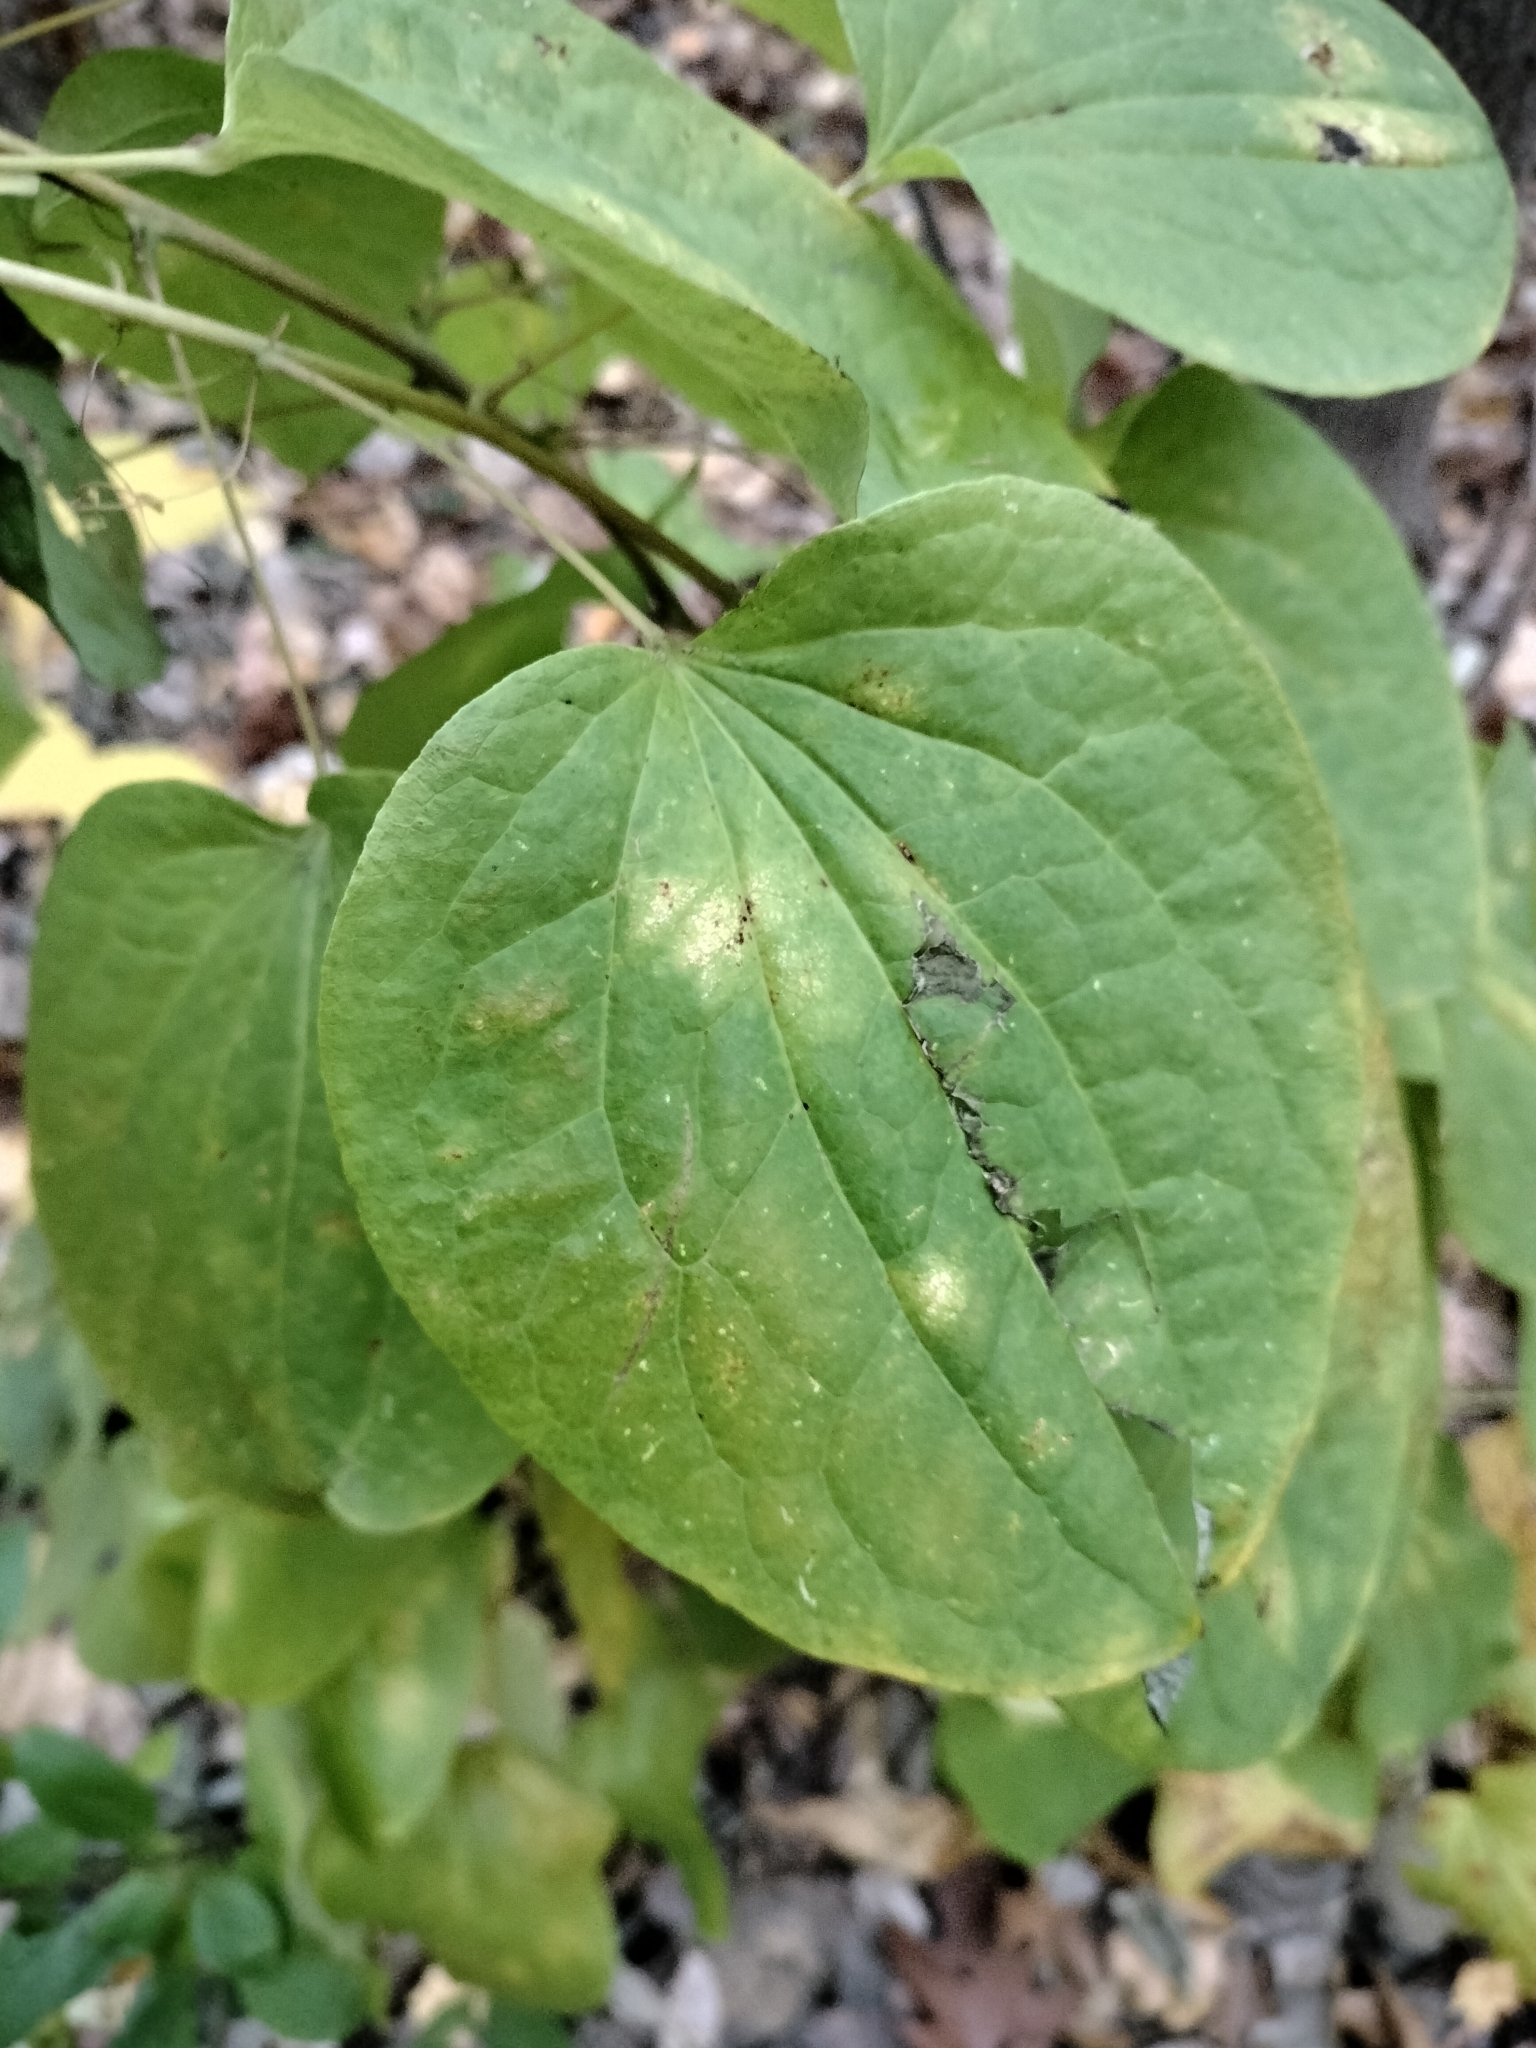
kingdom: Plantae
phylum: Tracheophyta
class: Liliopsida
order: Liliales
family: Smilacaceae
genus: Smilax
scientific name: Smilax lasioneura
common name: Blue ridge carrionflower
